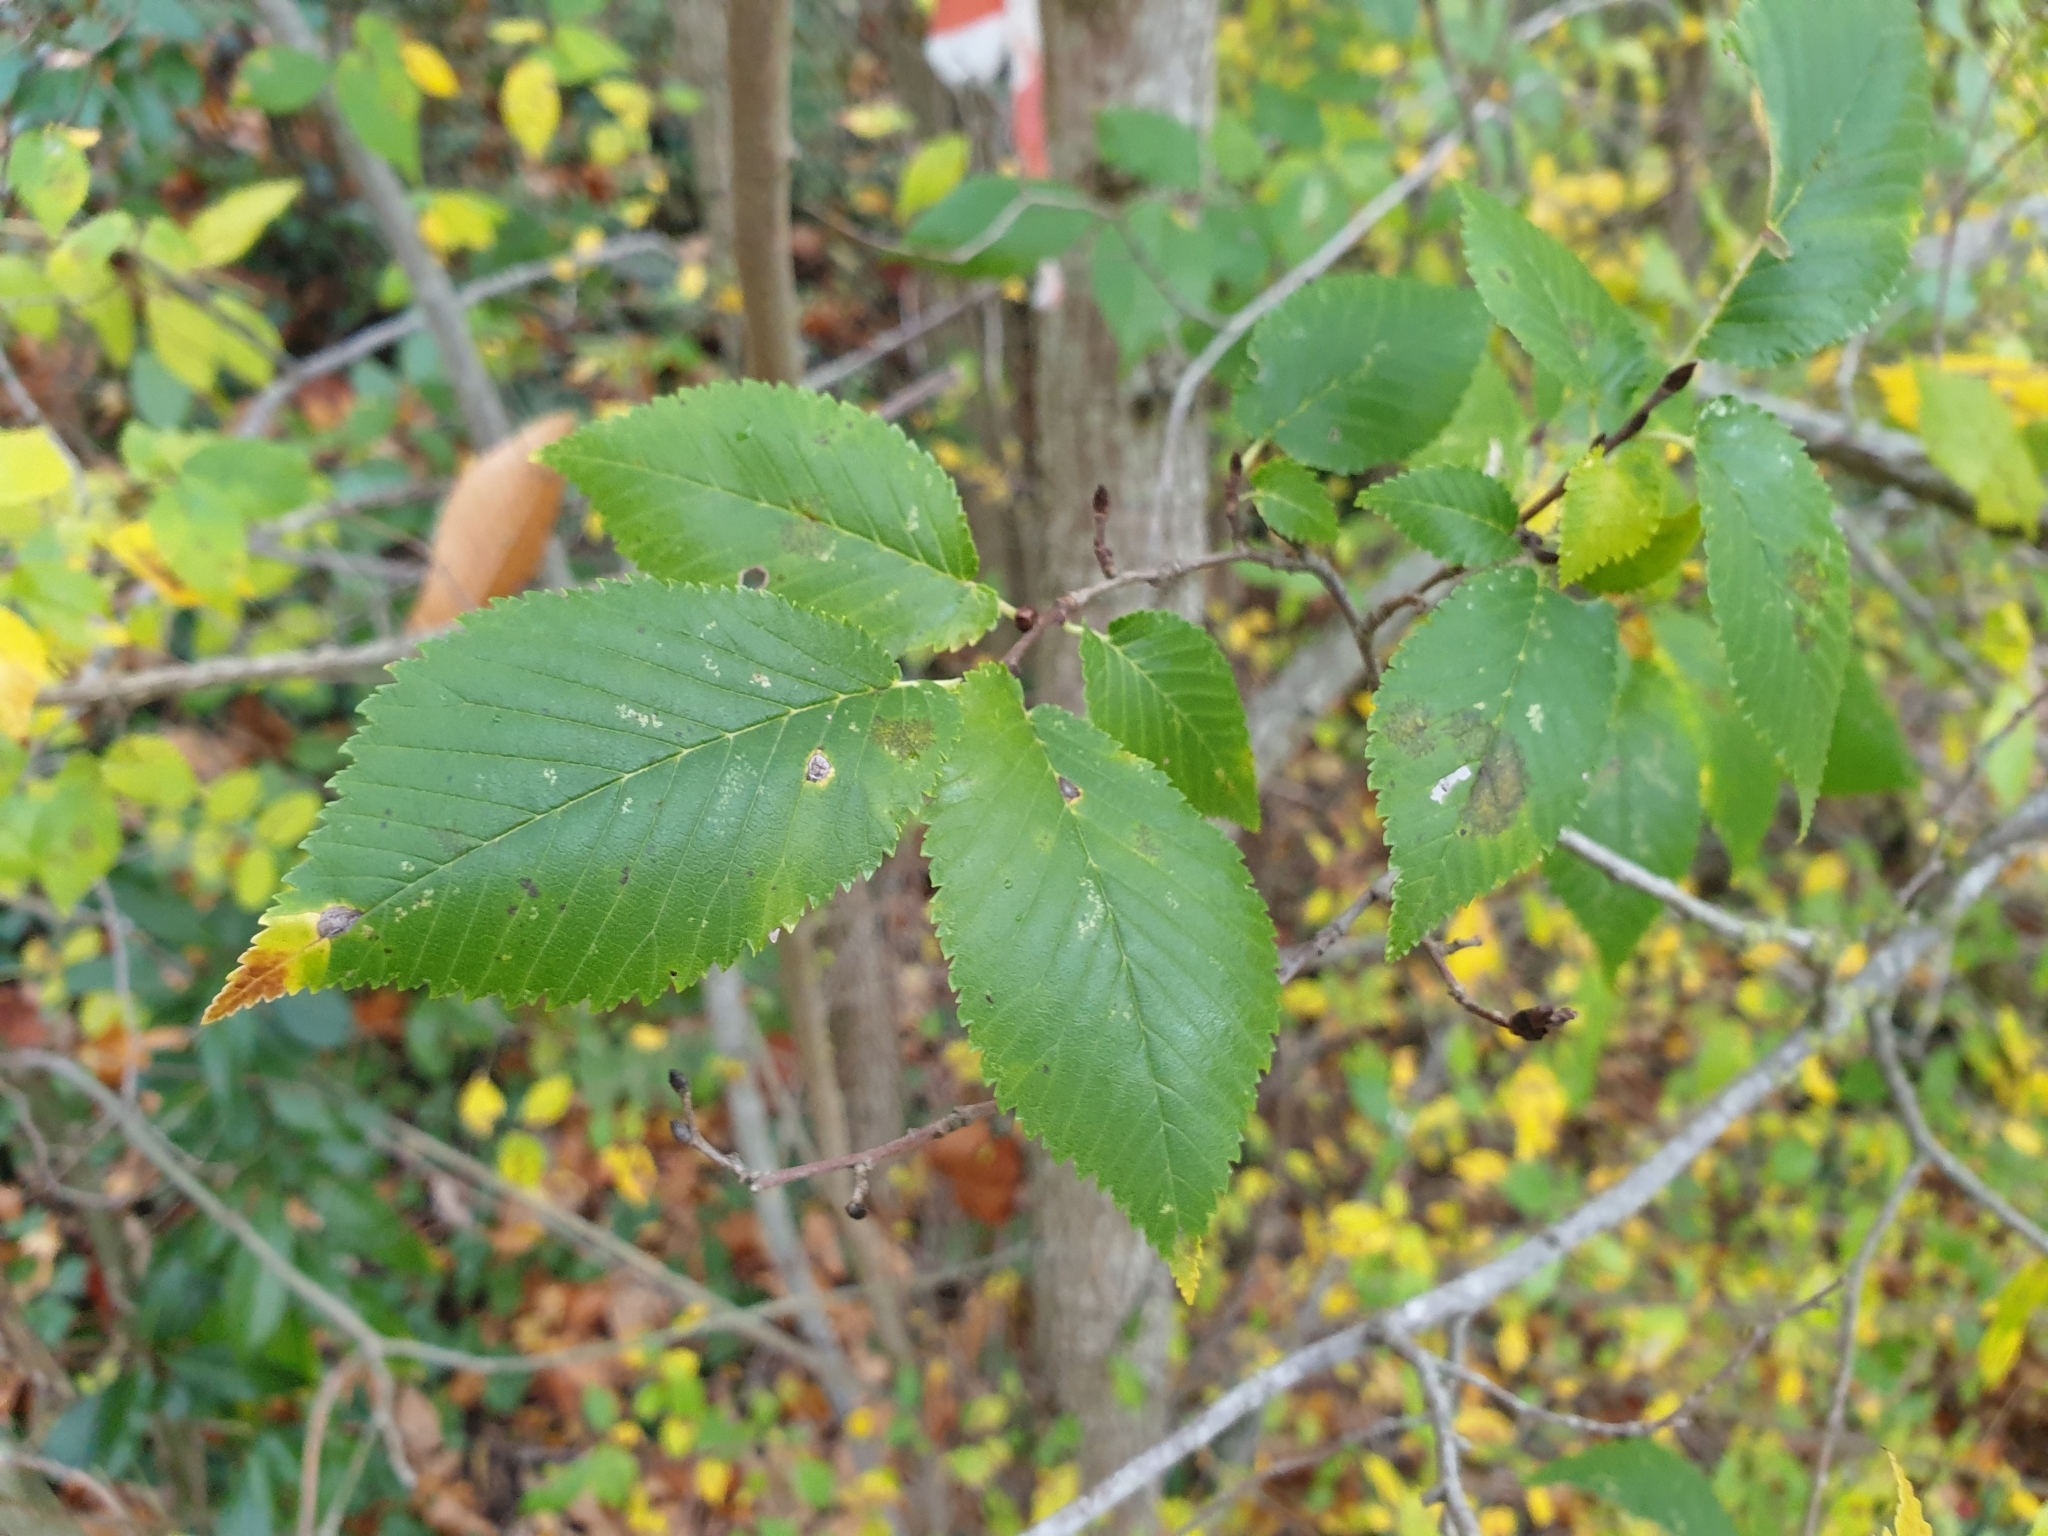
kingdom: Plantae
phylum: Tracheophyta
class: Magnoliopsida
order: Rosales
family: Ulmaceae
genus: Ulmus
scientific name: Ulmus minor
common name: Small-leaved elm
